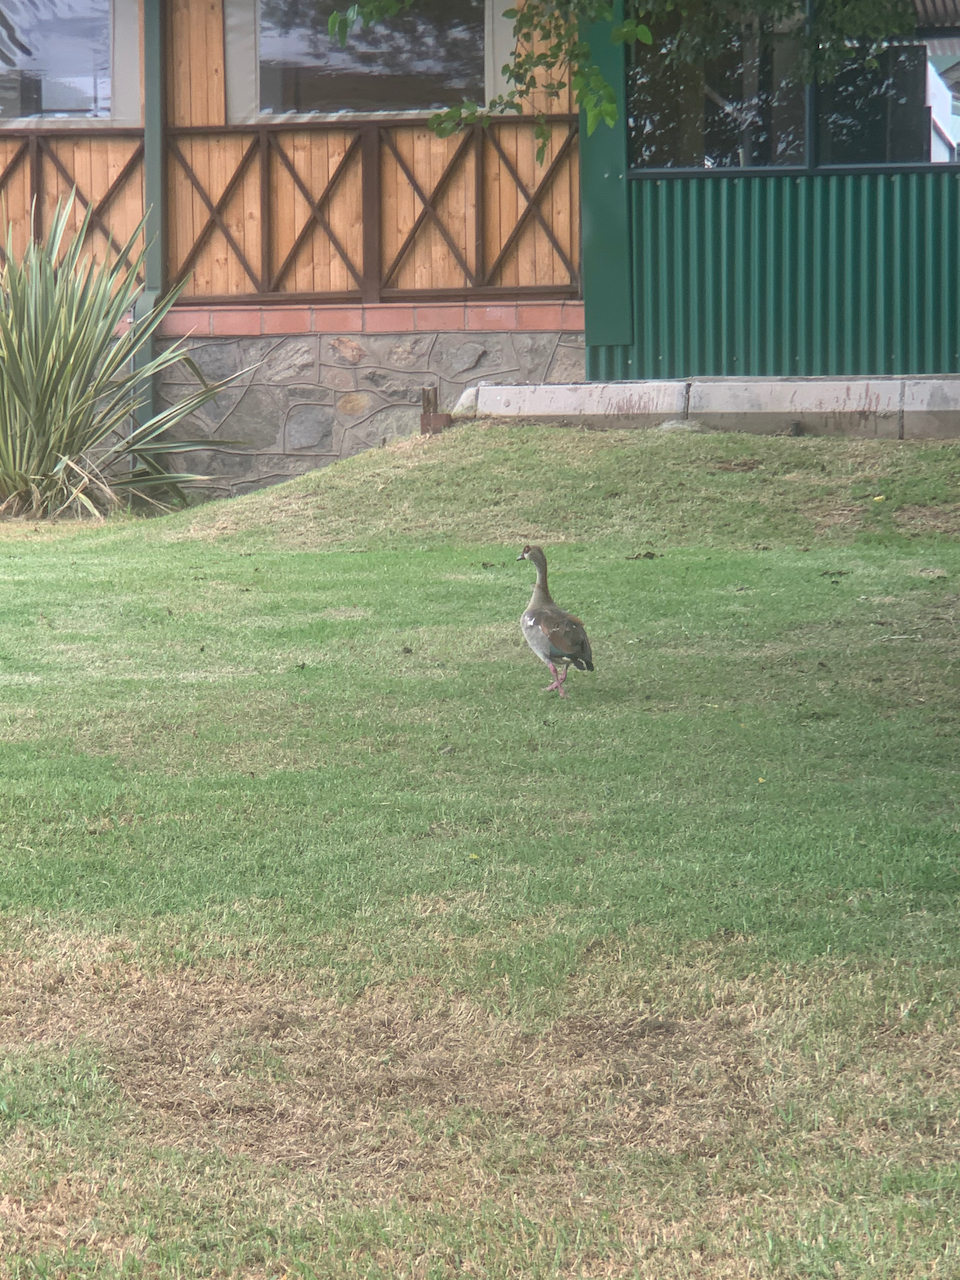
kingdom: Animalia
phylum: Chordata
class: Aves
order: Anseriformes
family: Anatidae
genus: Alopochen
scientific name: Alopochen aegyptiaca
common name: Egyptian goose
